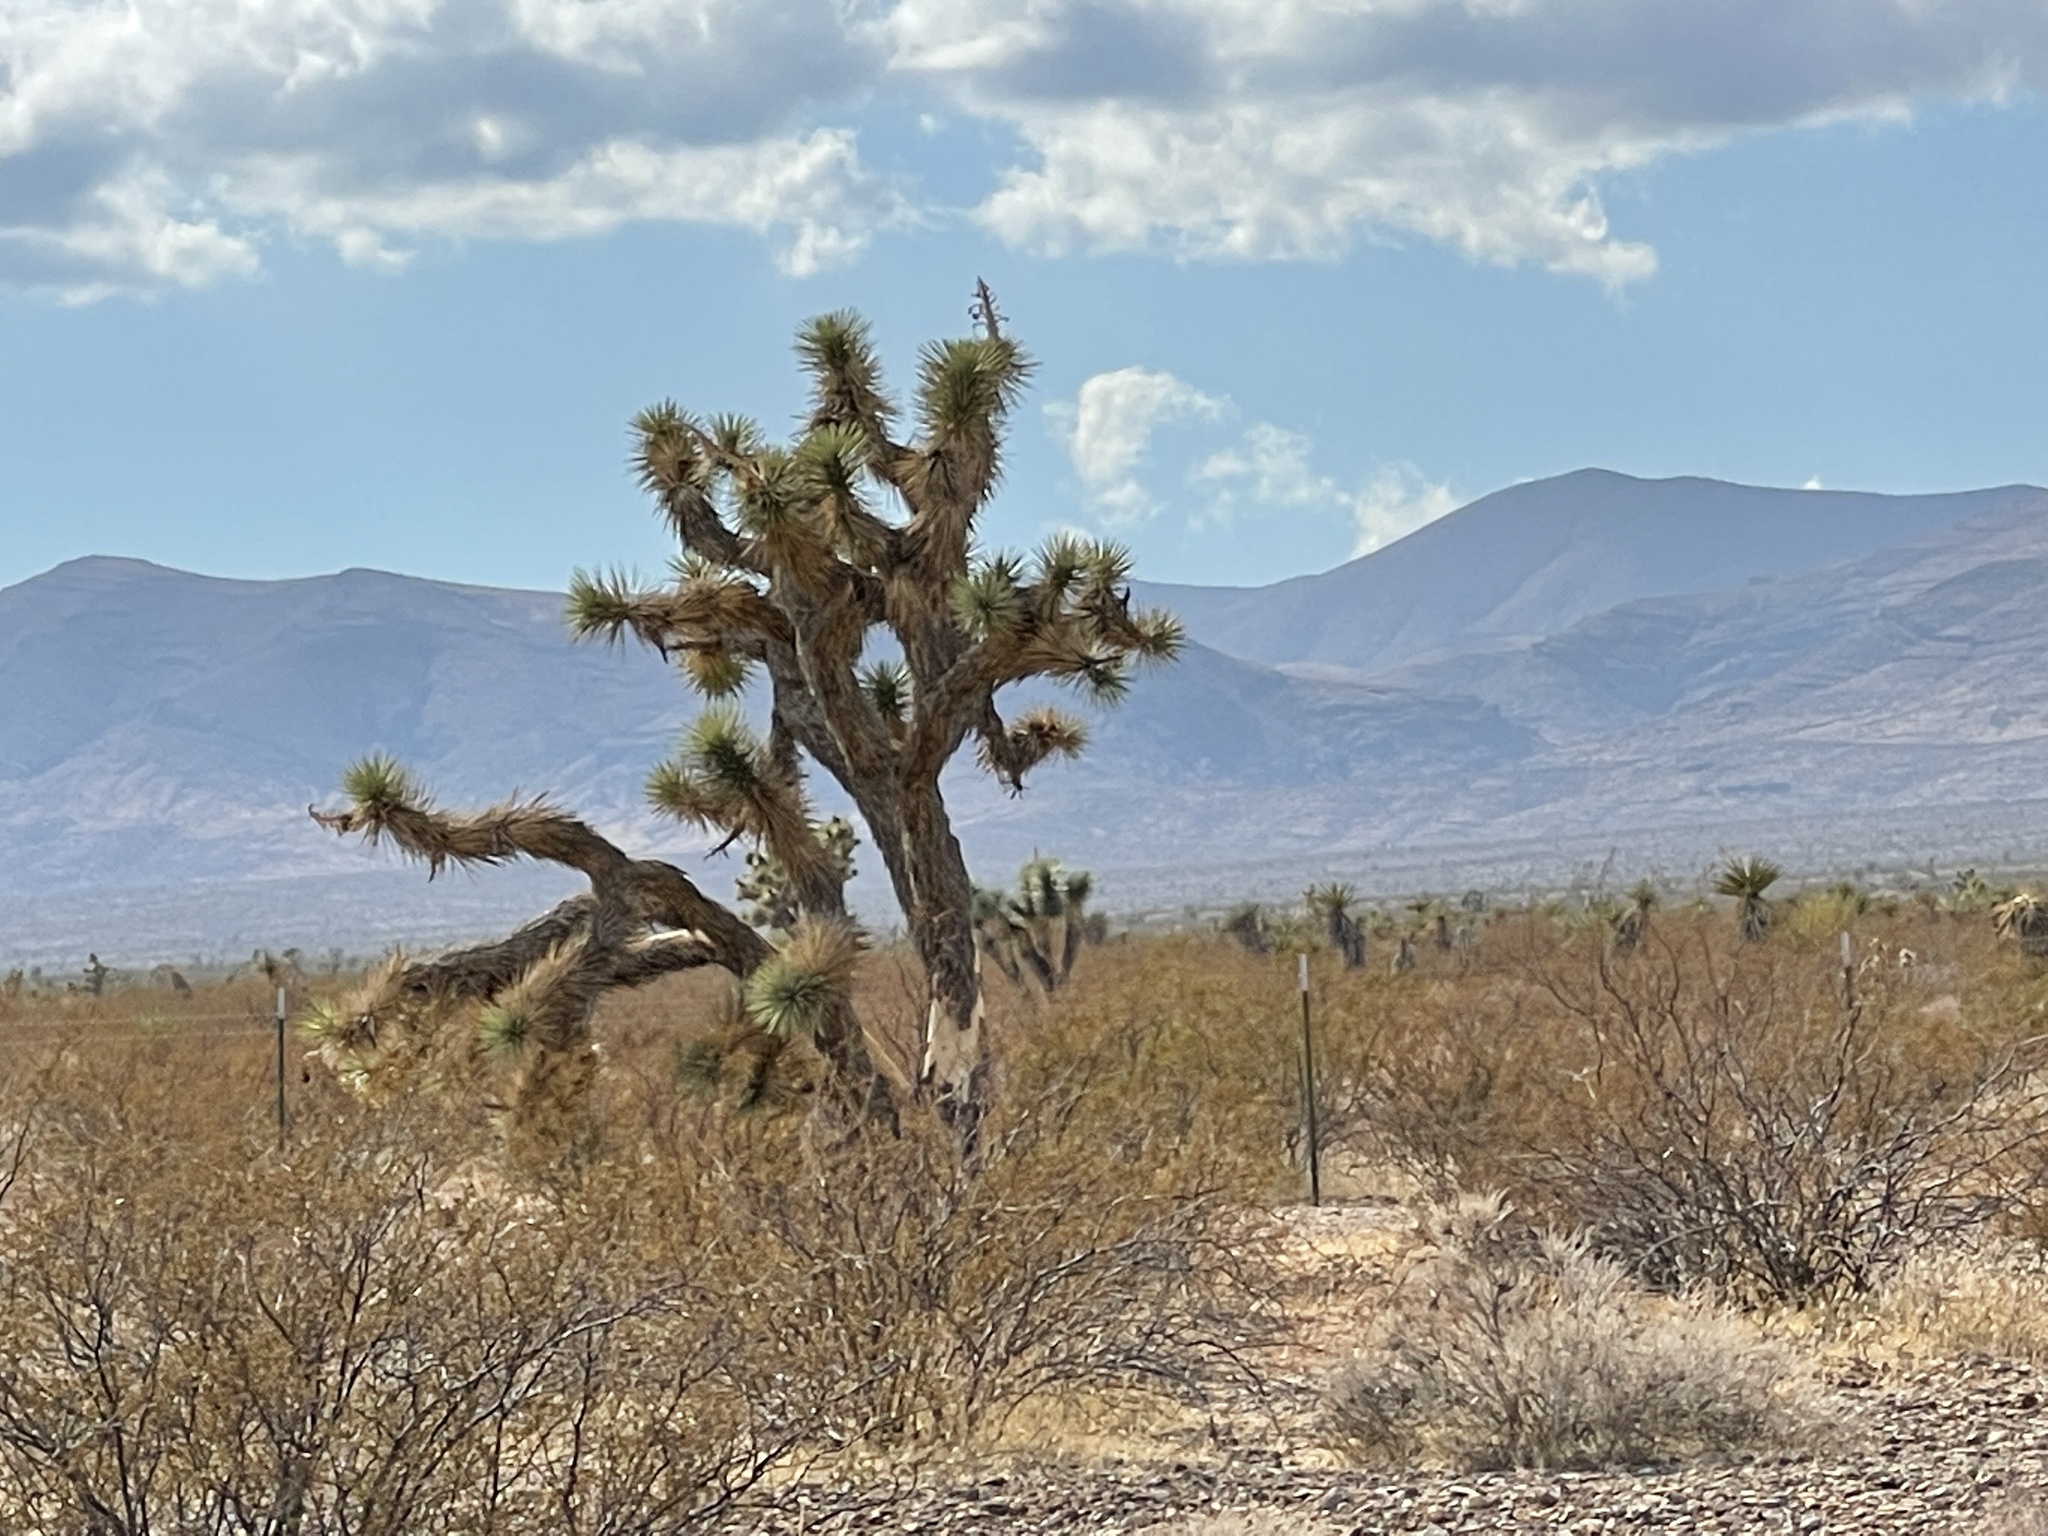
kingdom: Plantae
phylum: Tracheophyta
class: Liliopsida
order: Asparagales
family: Asparagaceae
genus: Yucca
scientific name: Yucca brevifolia
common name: Joshua tree
